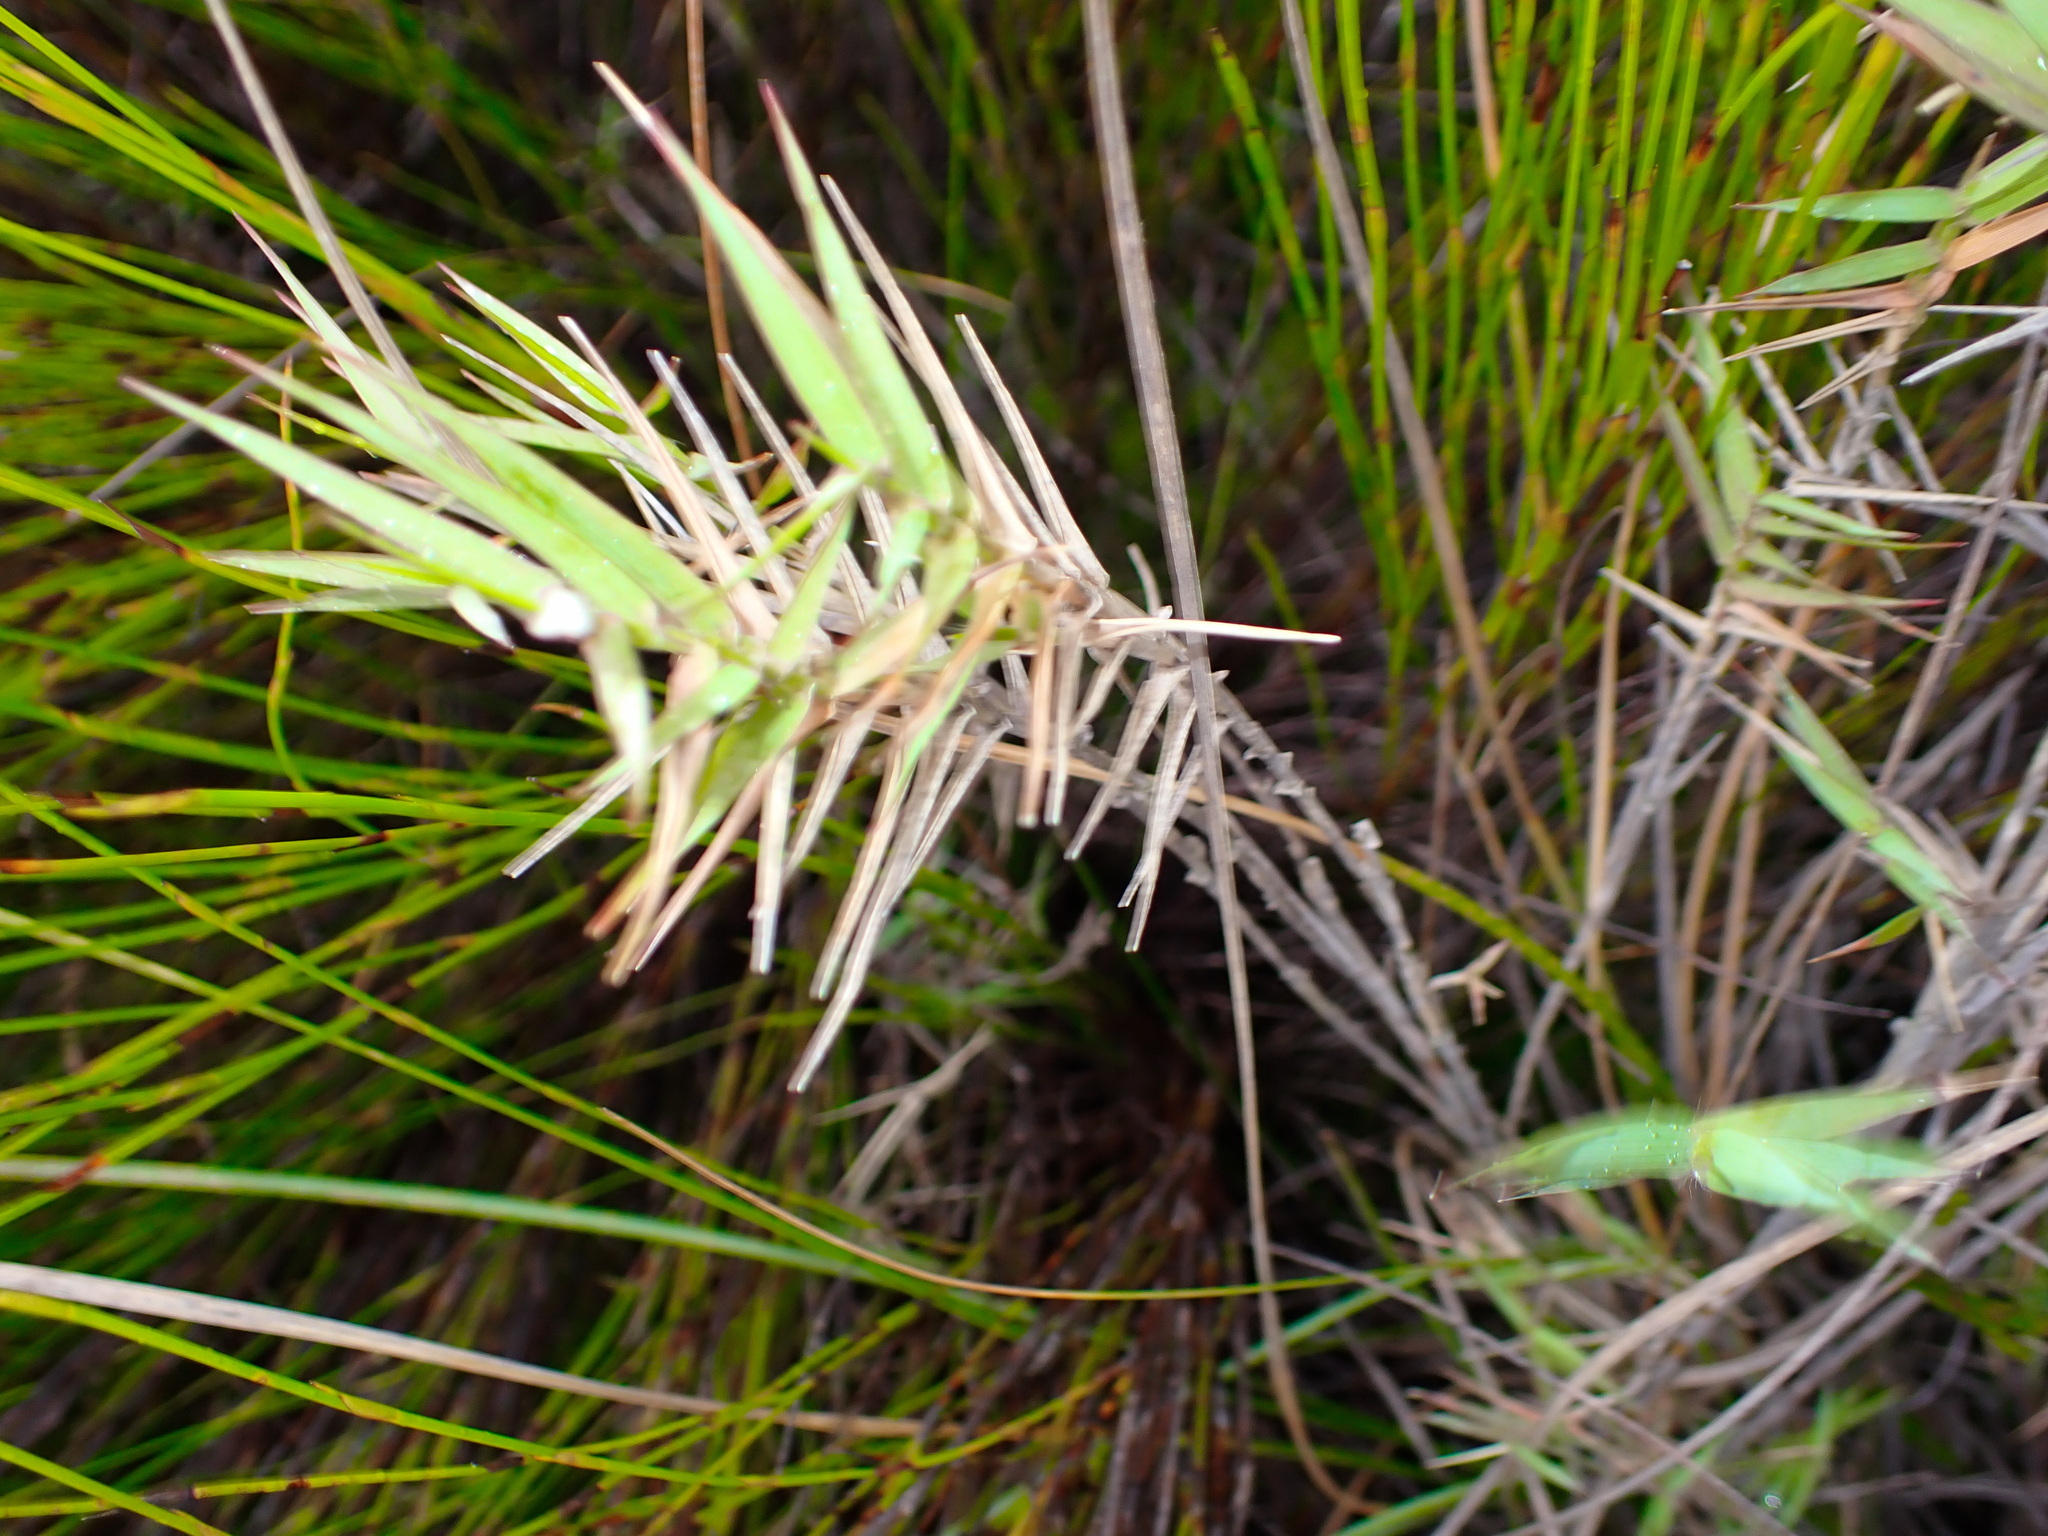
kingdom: Plantae
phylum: Tracheophyta
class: Liliopsida
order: Poales
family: Poaceae
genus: Urochloa
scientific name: Urochloa serrata
